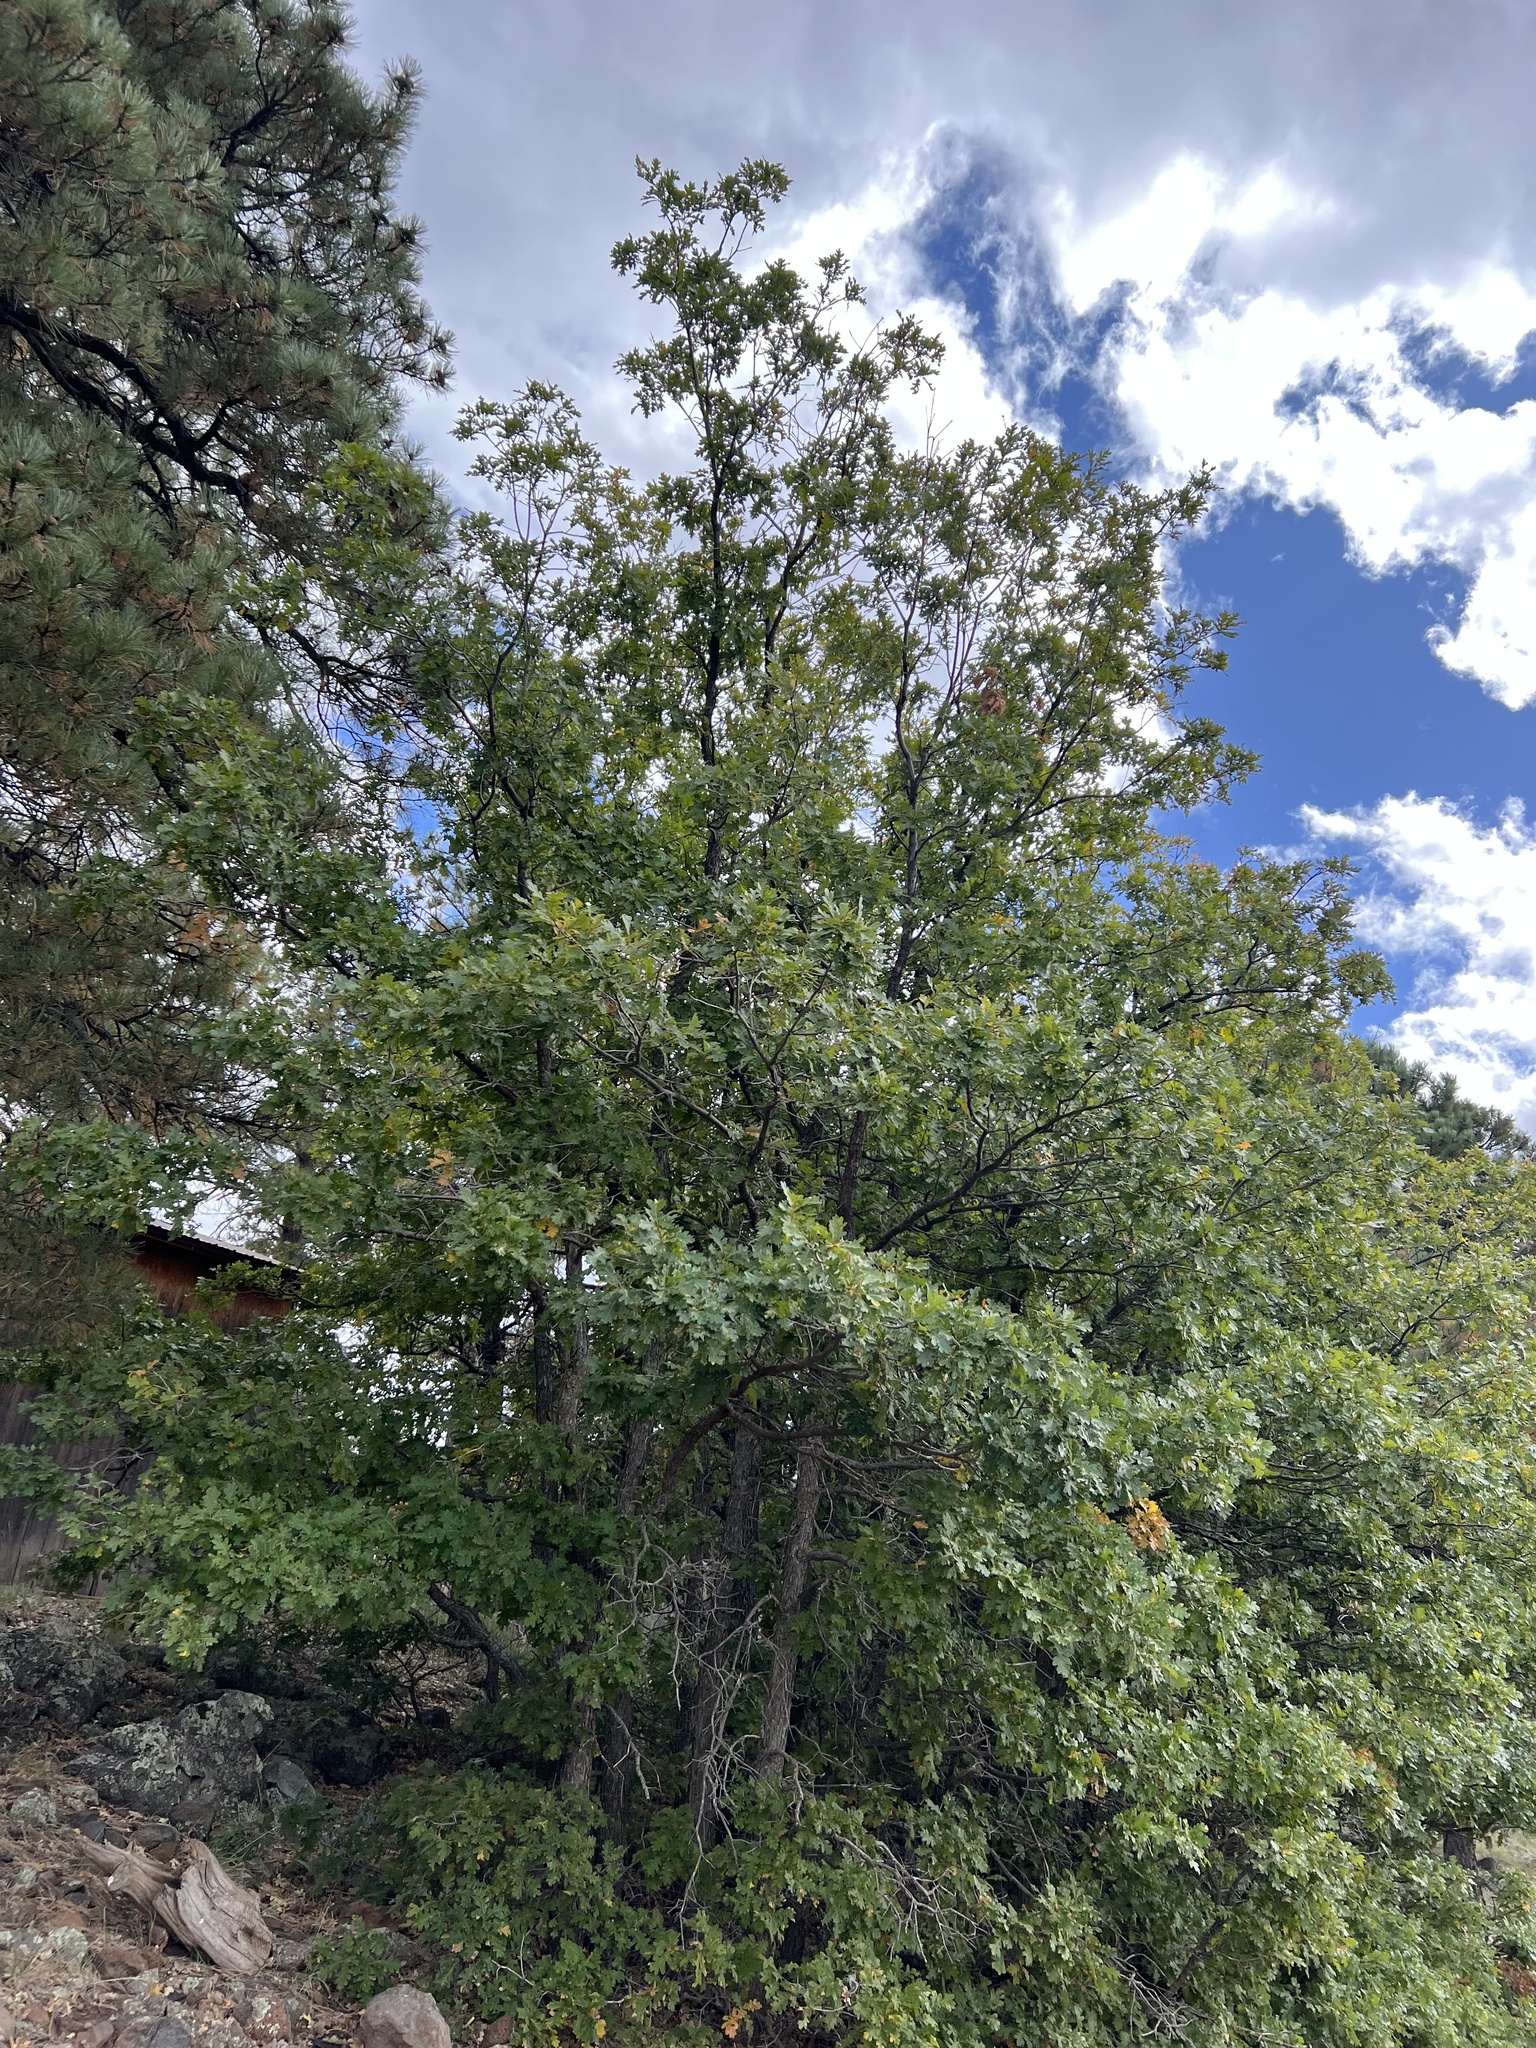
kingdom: Plantae
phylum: Tracheophyta
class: Magnoliopsida
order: Fagales
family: Fagaceae
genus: Quercus
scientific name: Quercus gambelii
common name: Gambel oak
